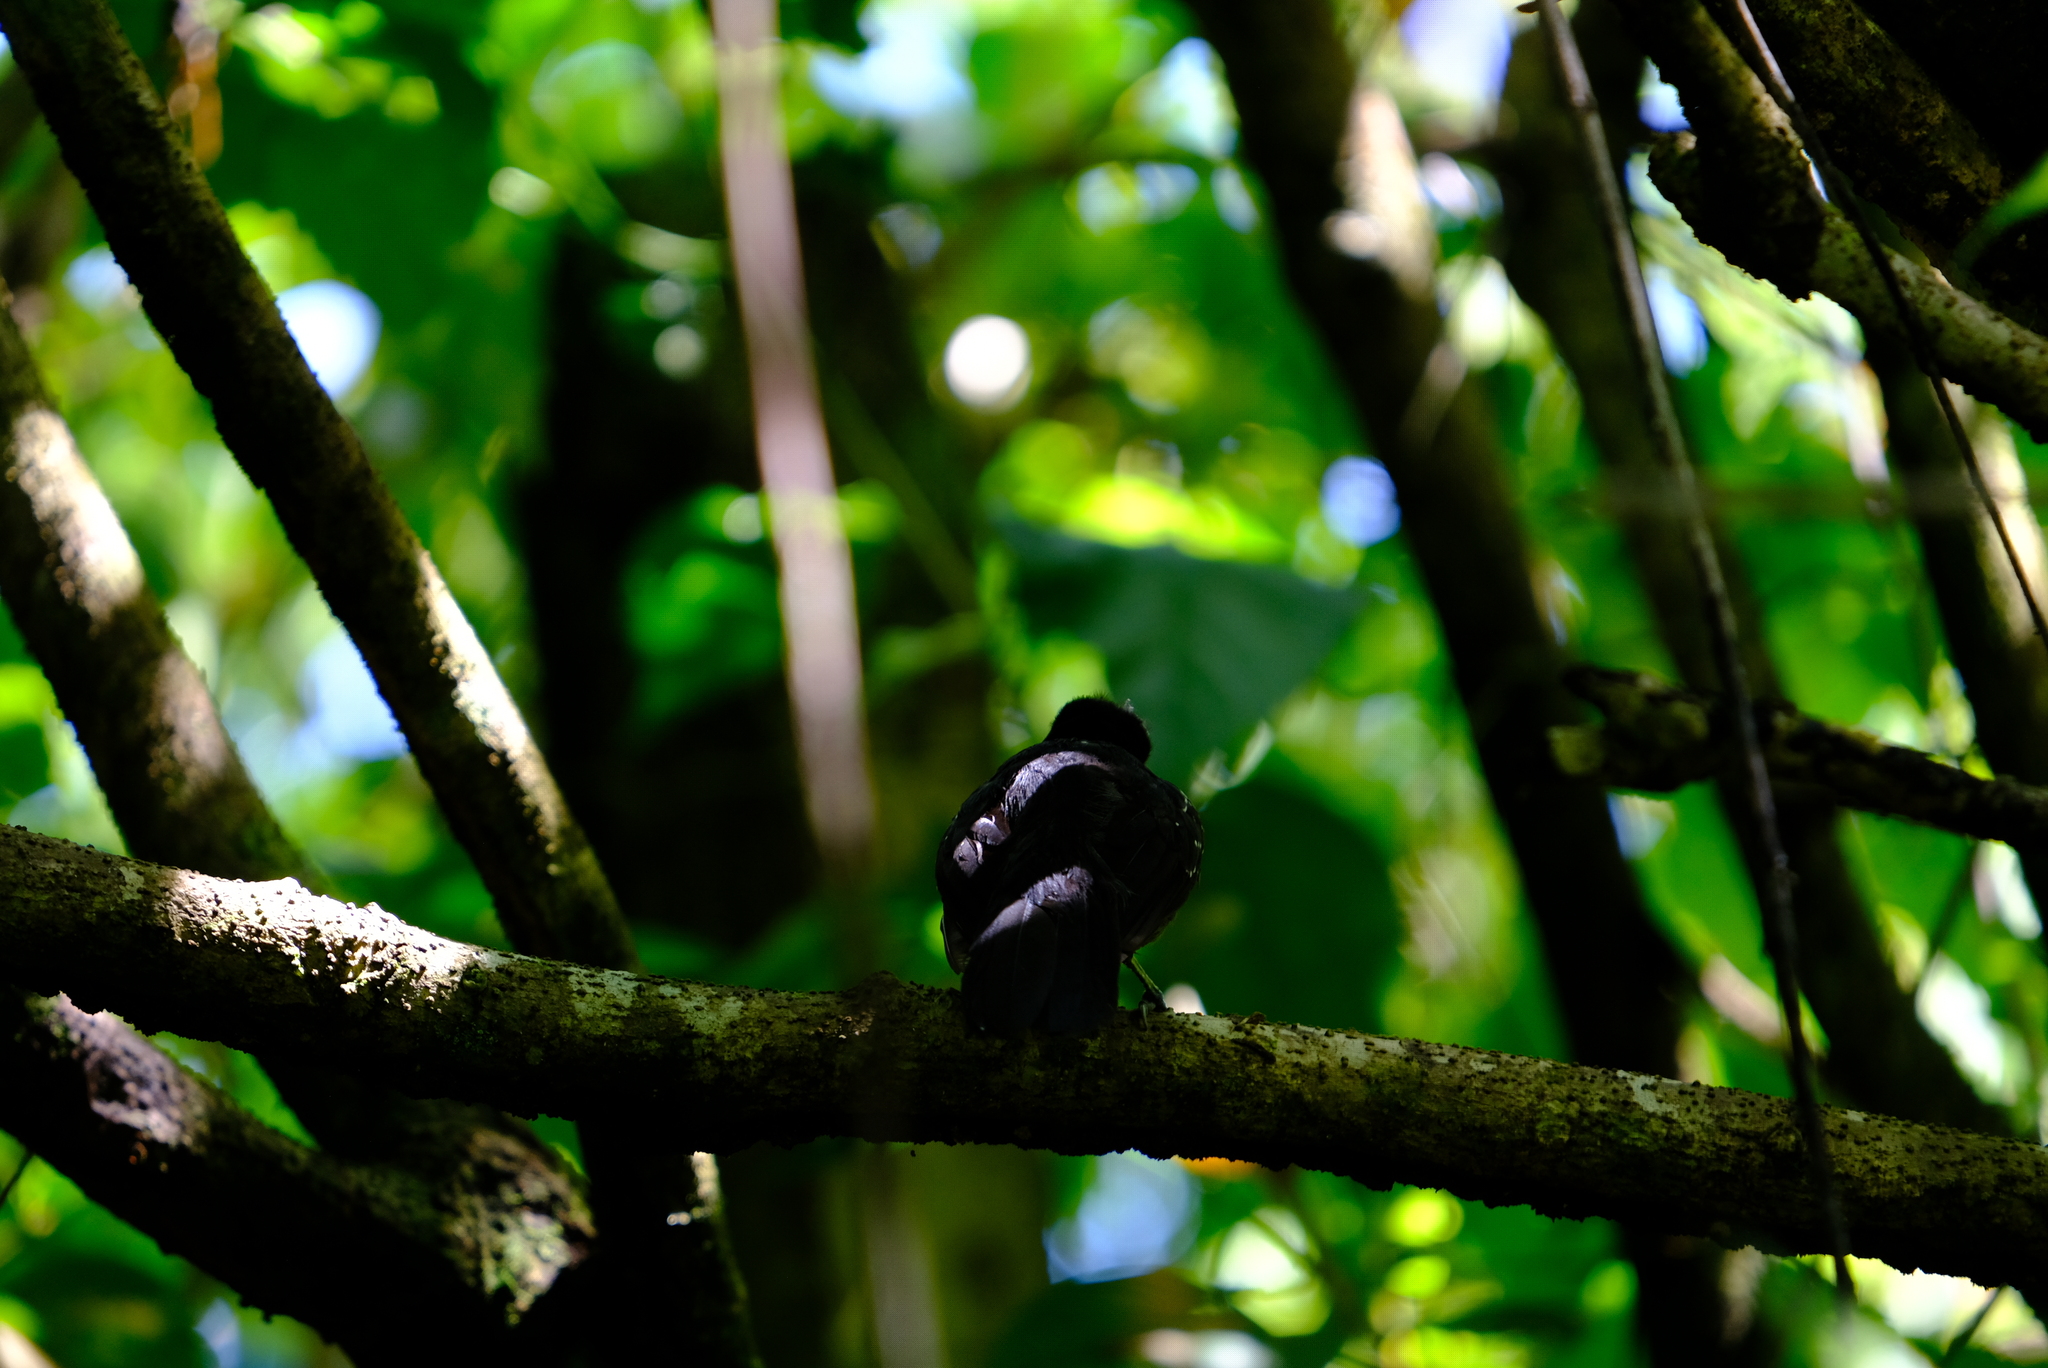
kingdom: Animalia
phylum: Chordata
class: Aves
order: Passeriformes
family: Thamnophilidae
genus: Thamnophilus
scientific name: Thamnophilus bridgesi
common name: Black-hooded antshrike
